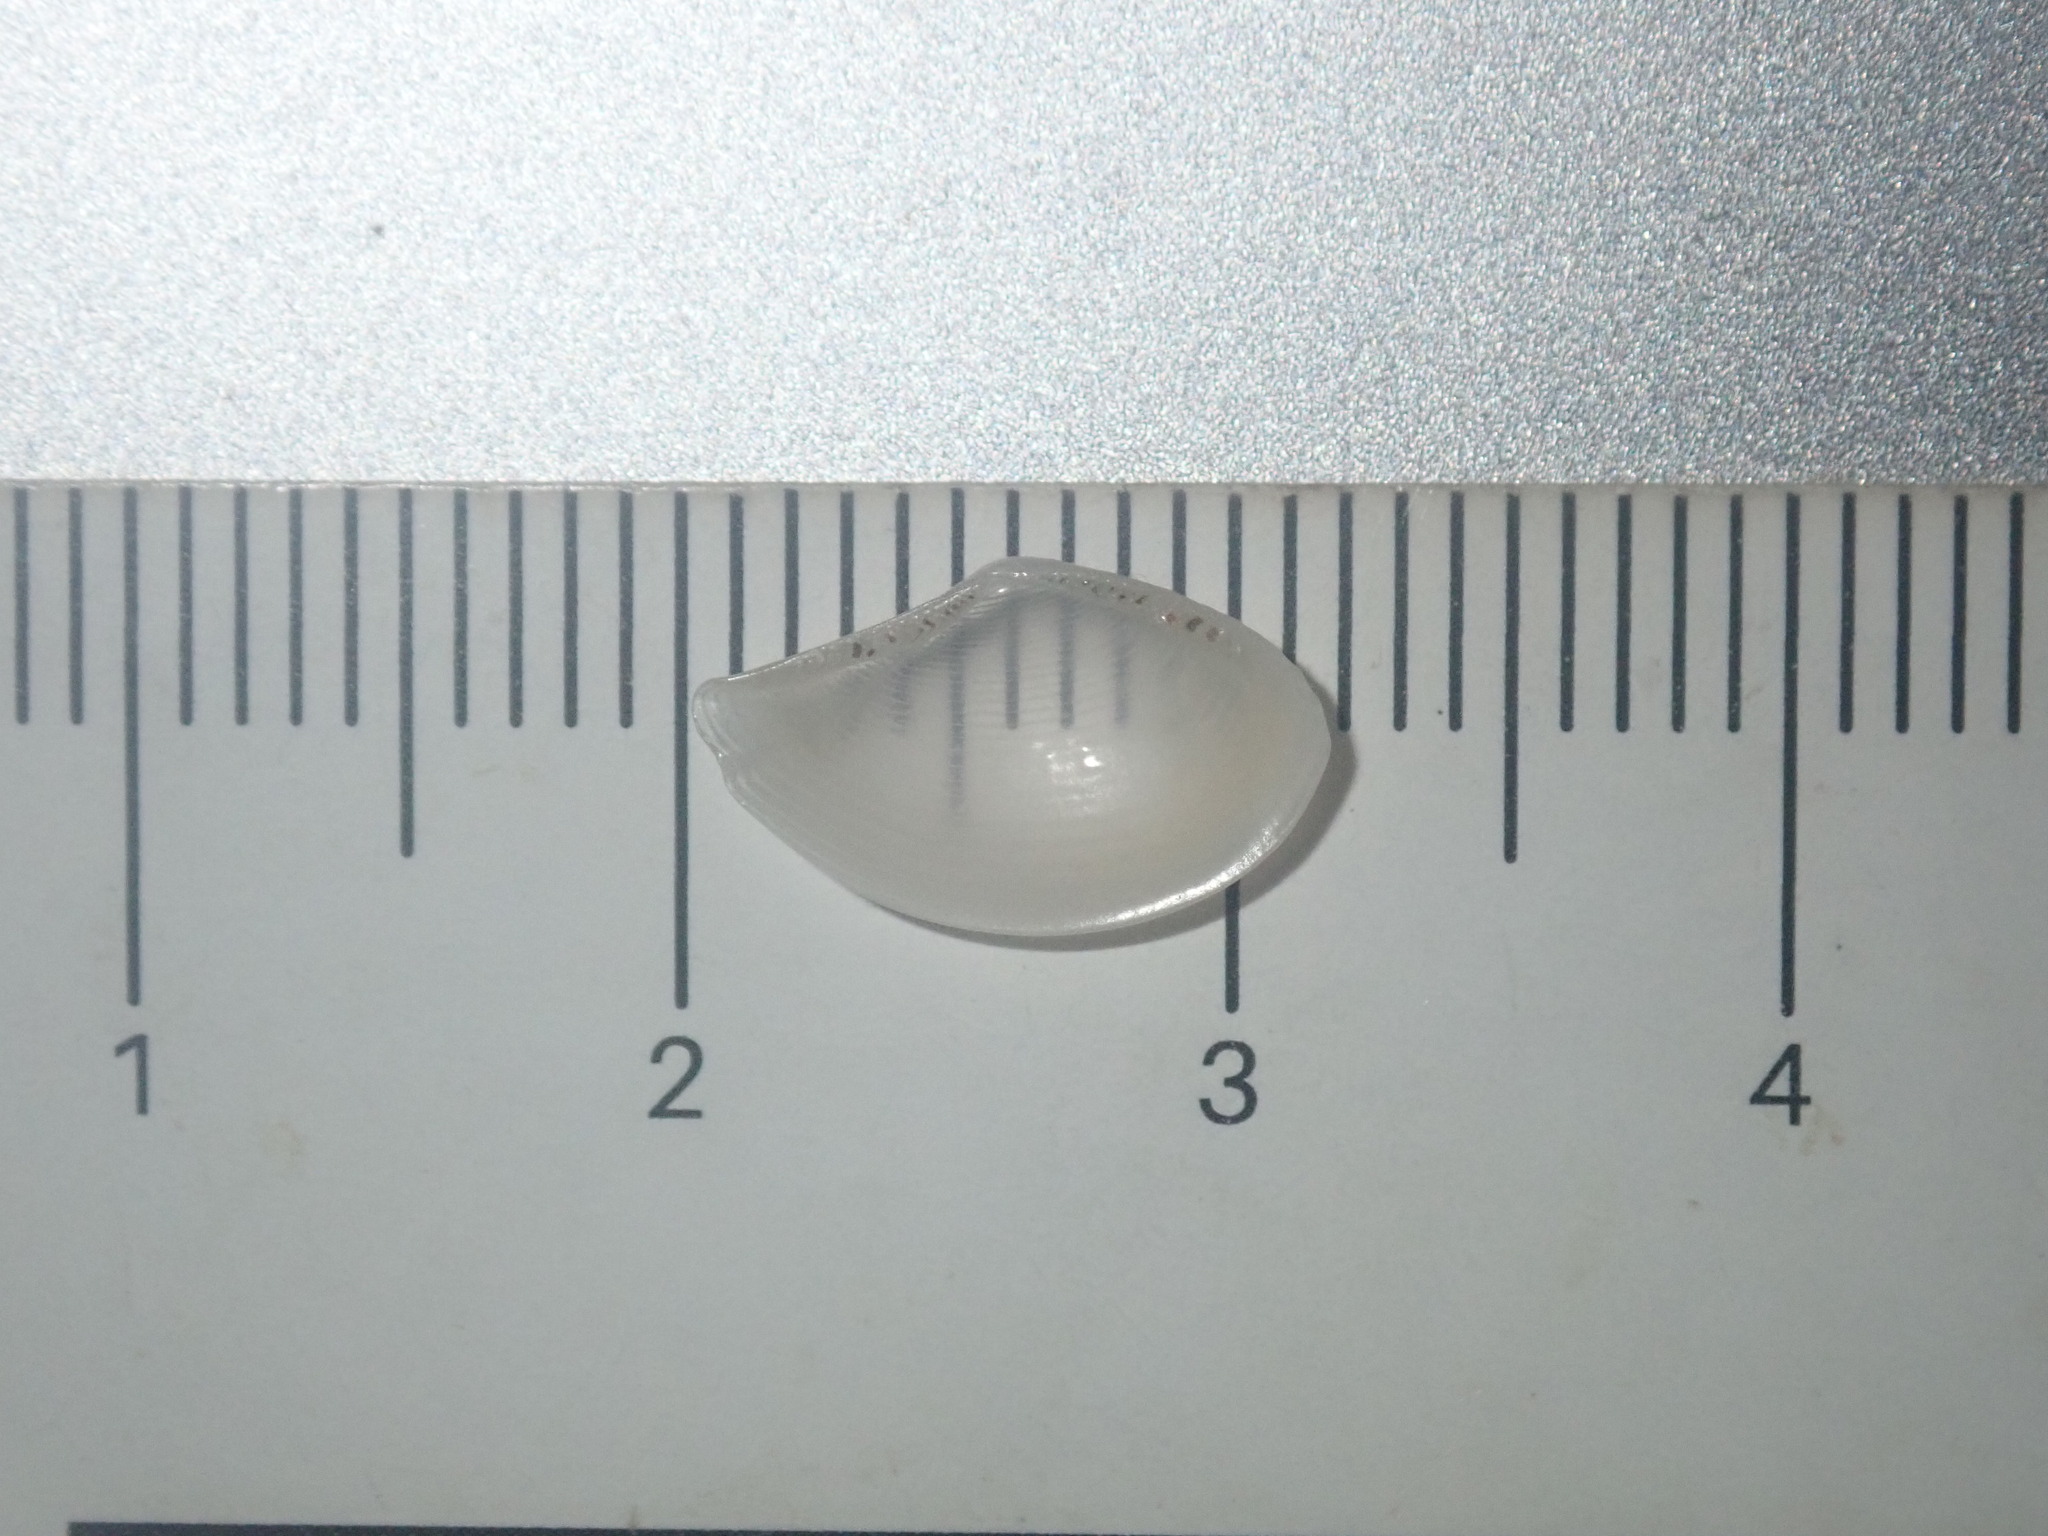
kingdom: Animalia
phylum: Mollusca
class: Bivalvia
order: Nuculanida
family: Nuculanidae
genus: Nuculana
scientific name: Nuculana dohrni
